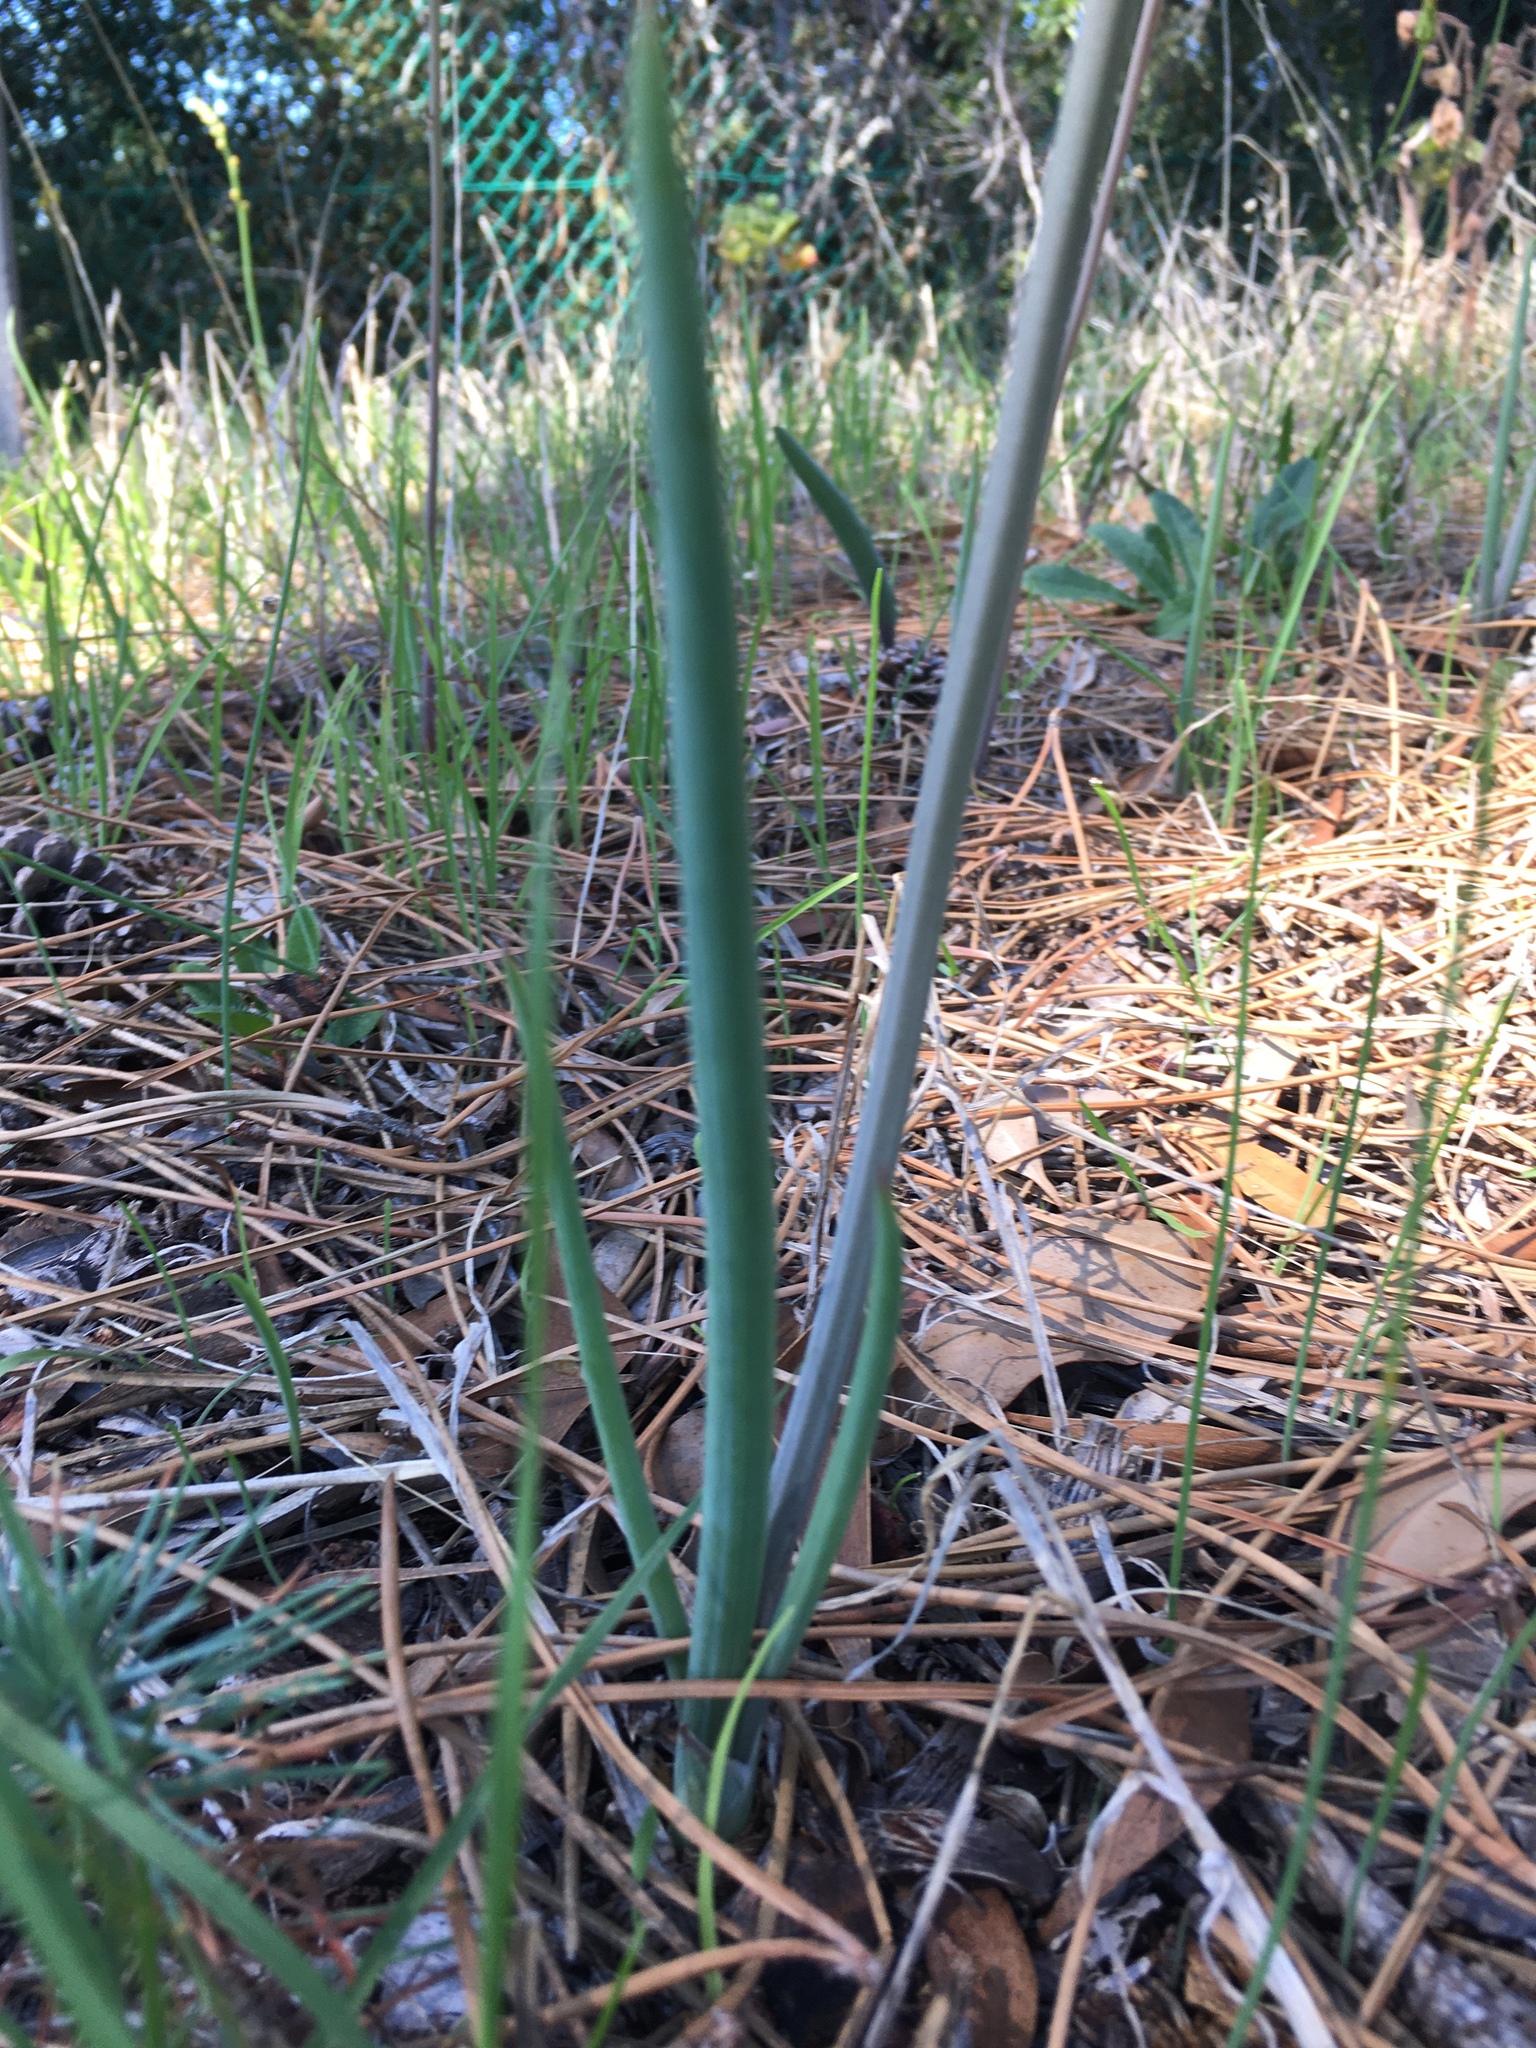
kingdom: Plantae
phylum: Tracheophyta
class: Liliopsida
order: Asparagales
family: Asphodelaceae
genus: Bulbine
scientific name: Bulbine cepacea
